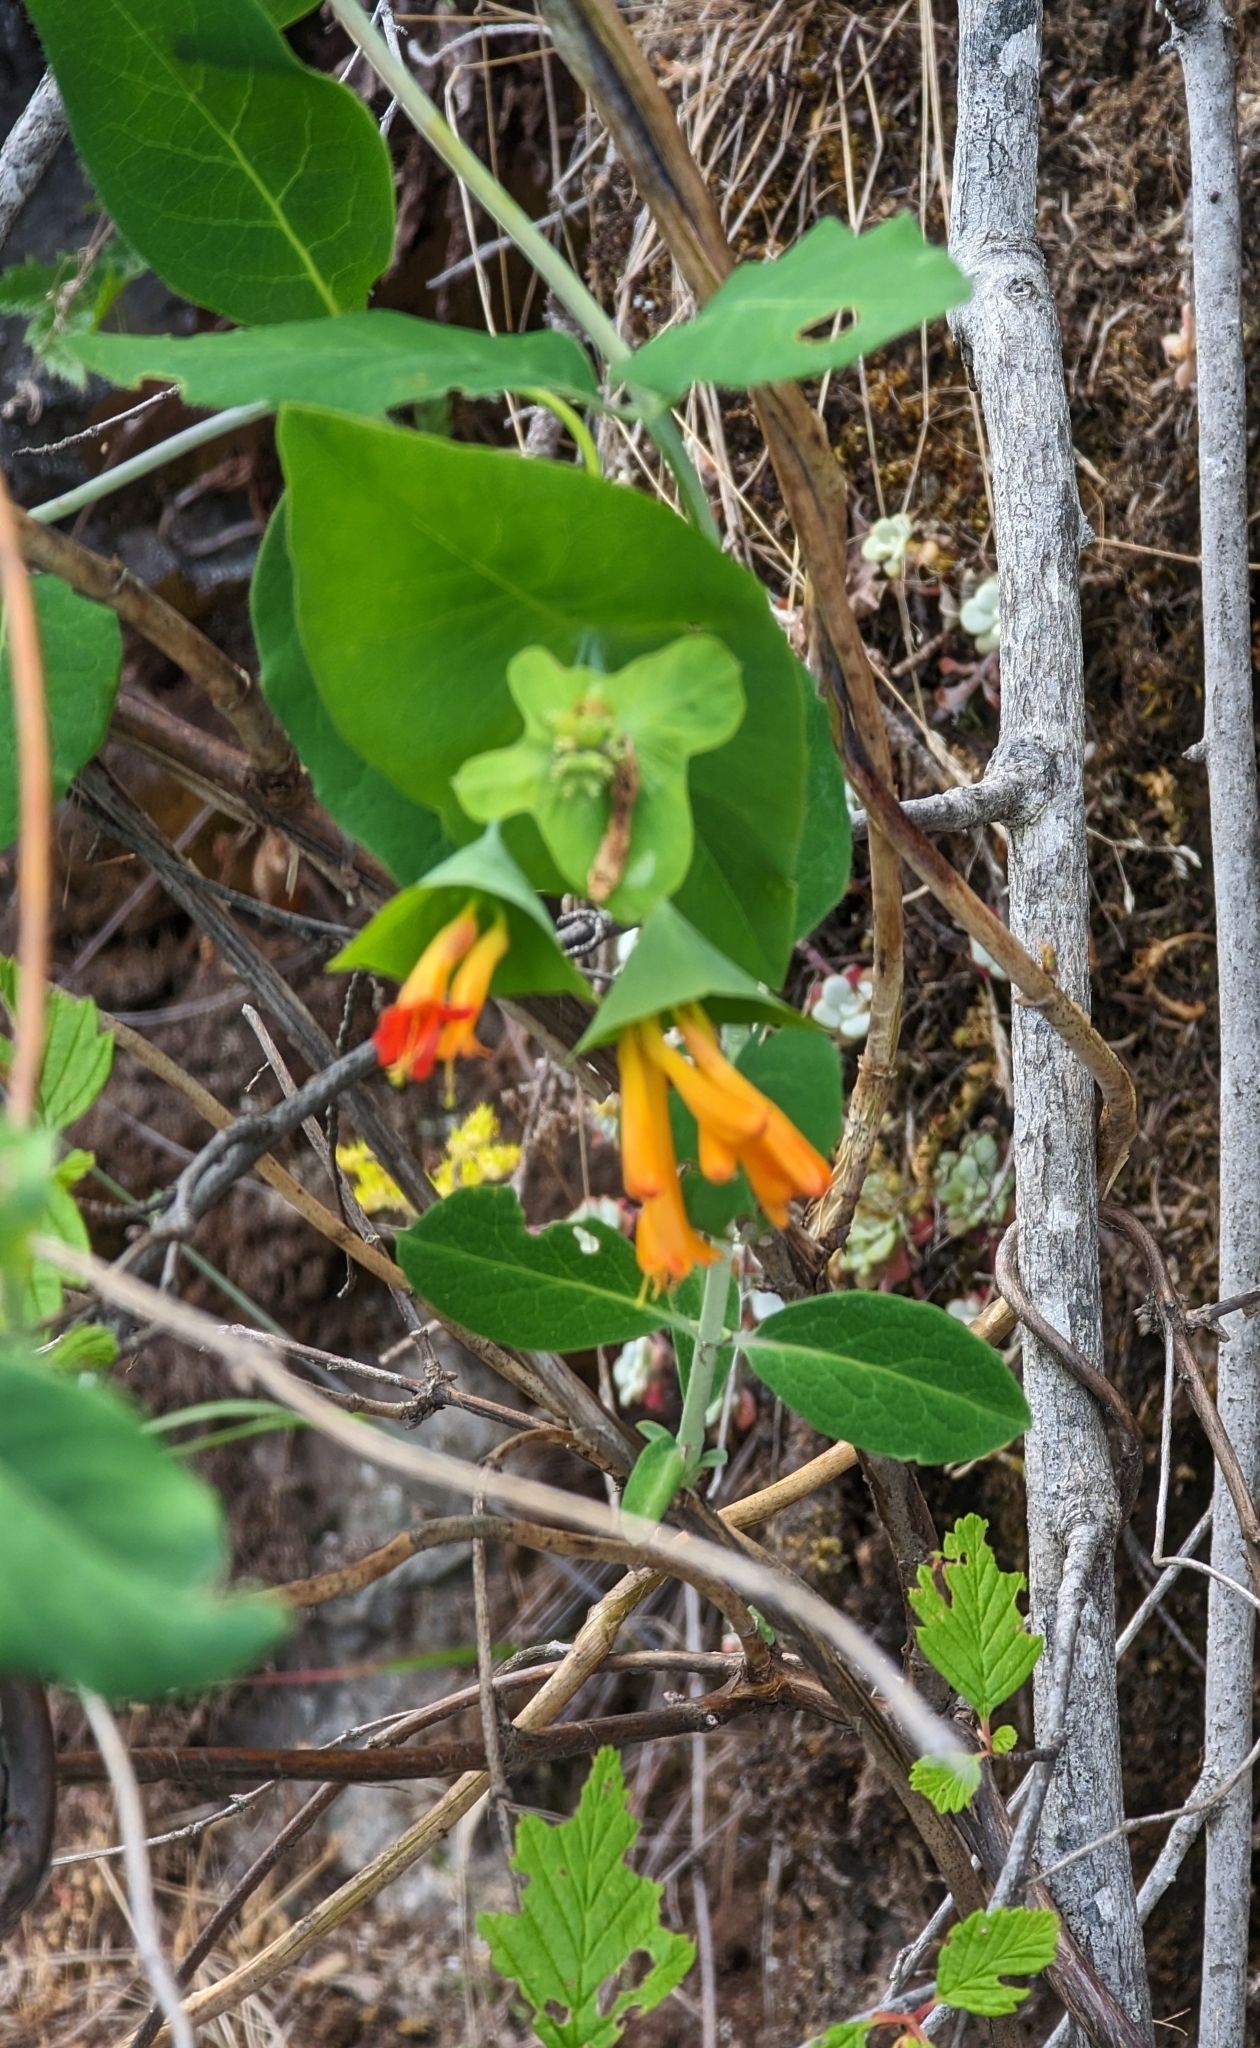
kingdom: Plantae
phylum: Tracheophyta
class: Magnoliopsida
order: Dipsacales
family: Caprifoliaceae
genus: Lonicera
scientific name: Lonicera ciliosa
